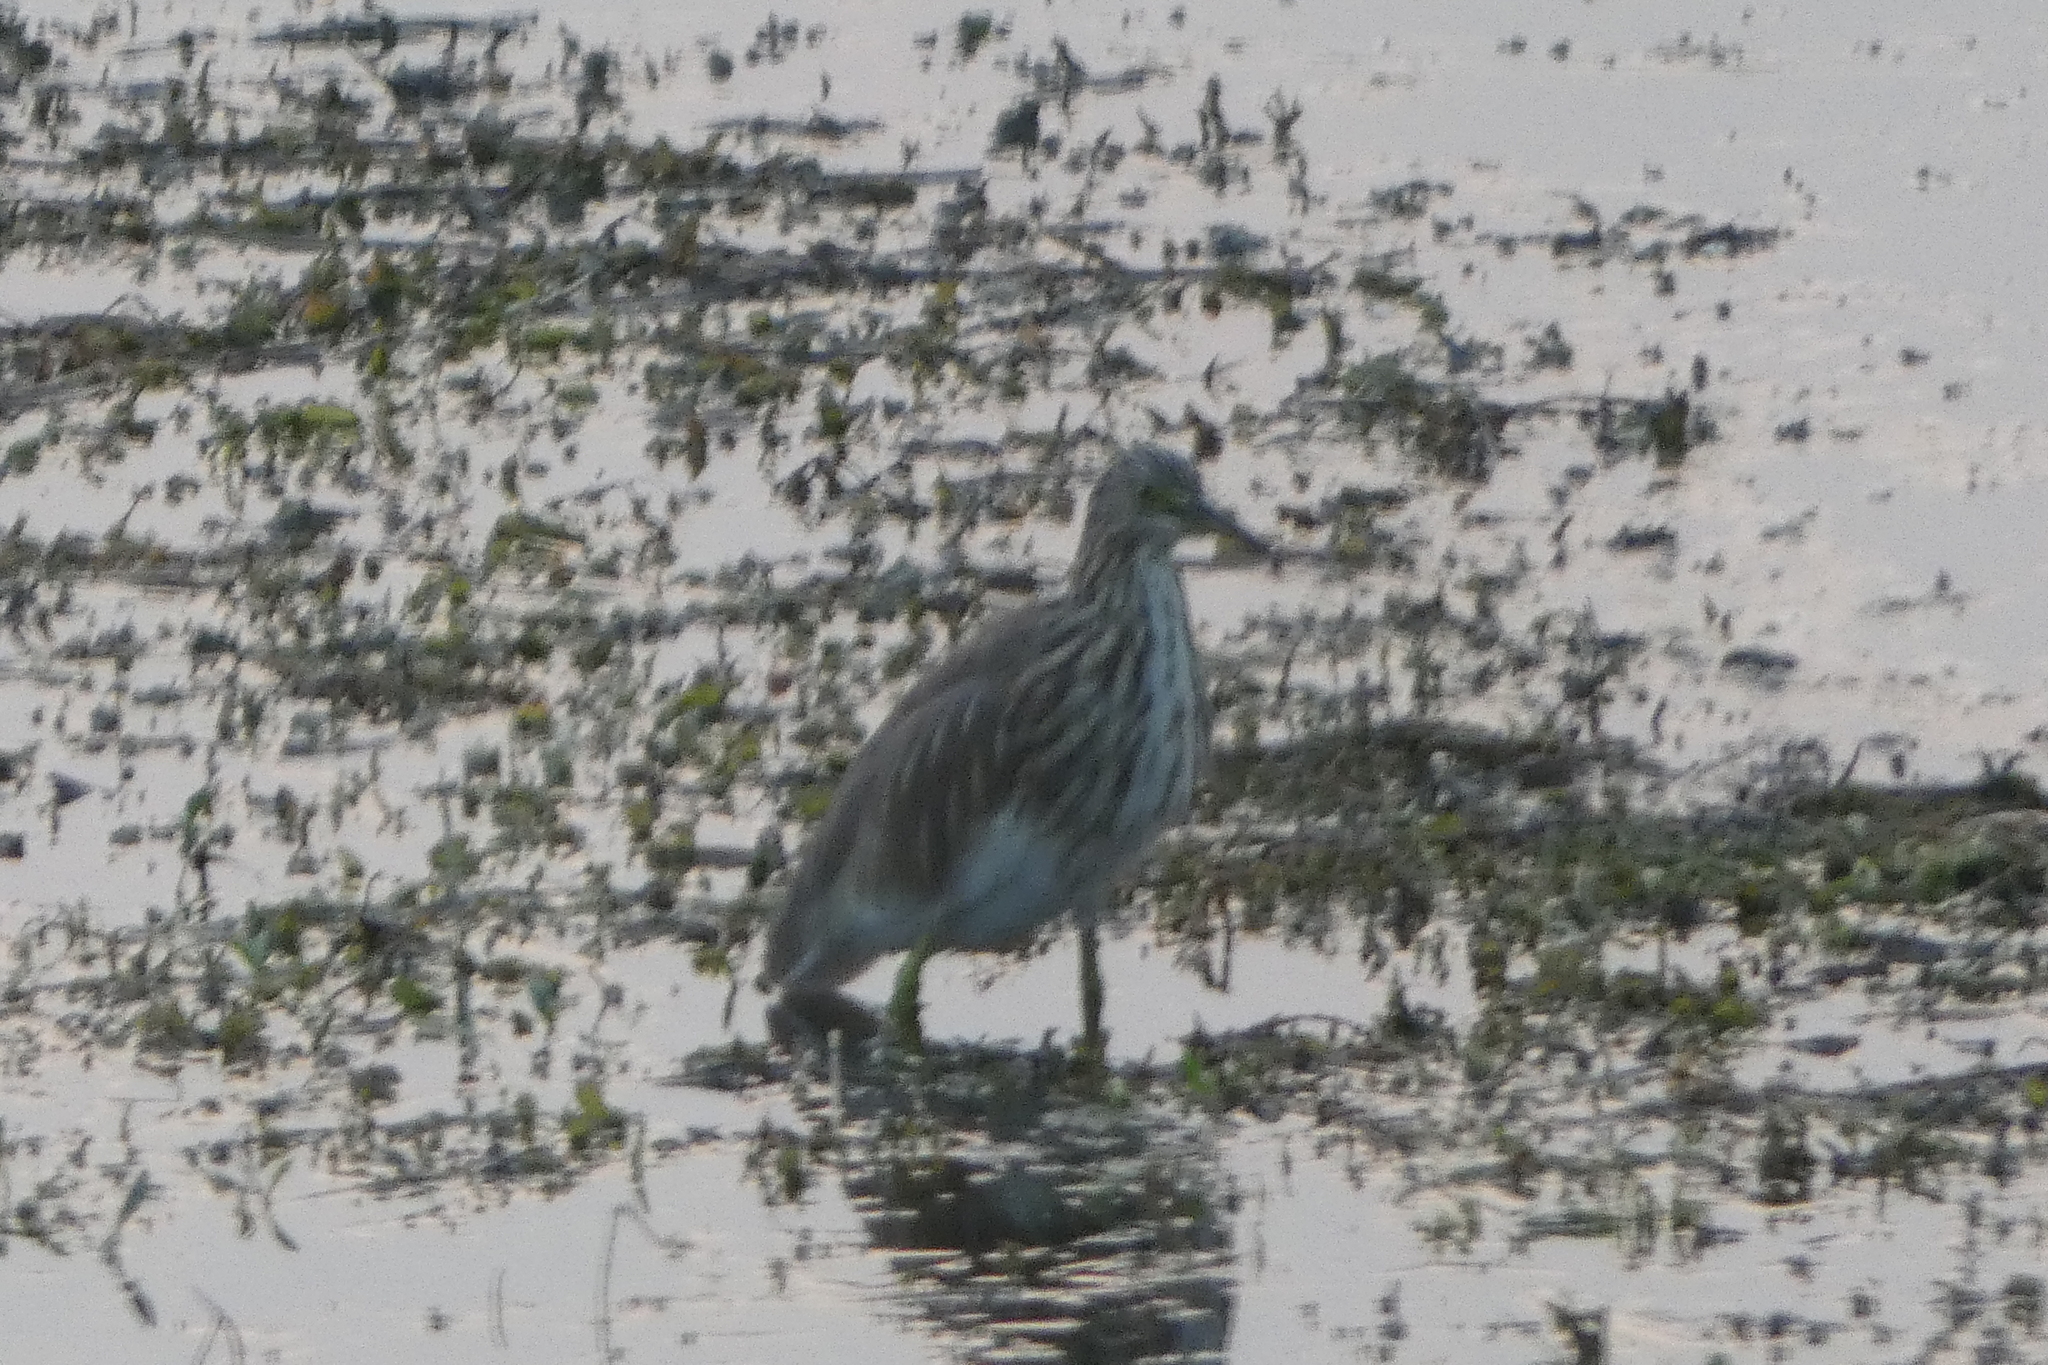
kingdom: Animalia
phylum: Chordata
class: Aves
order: Pelecaniformes
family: Ardeidae
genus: Ardeola
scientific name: Ardeola grayii
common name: Indian pond heron
